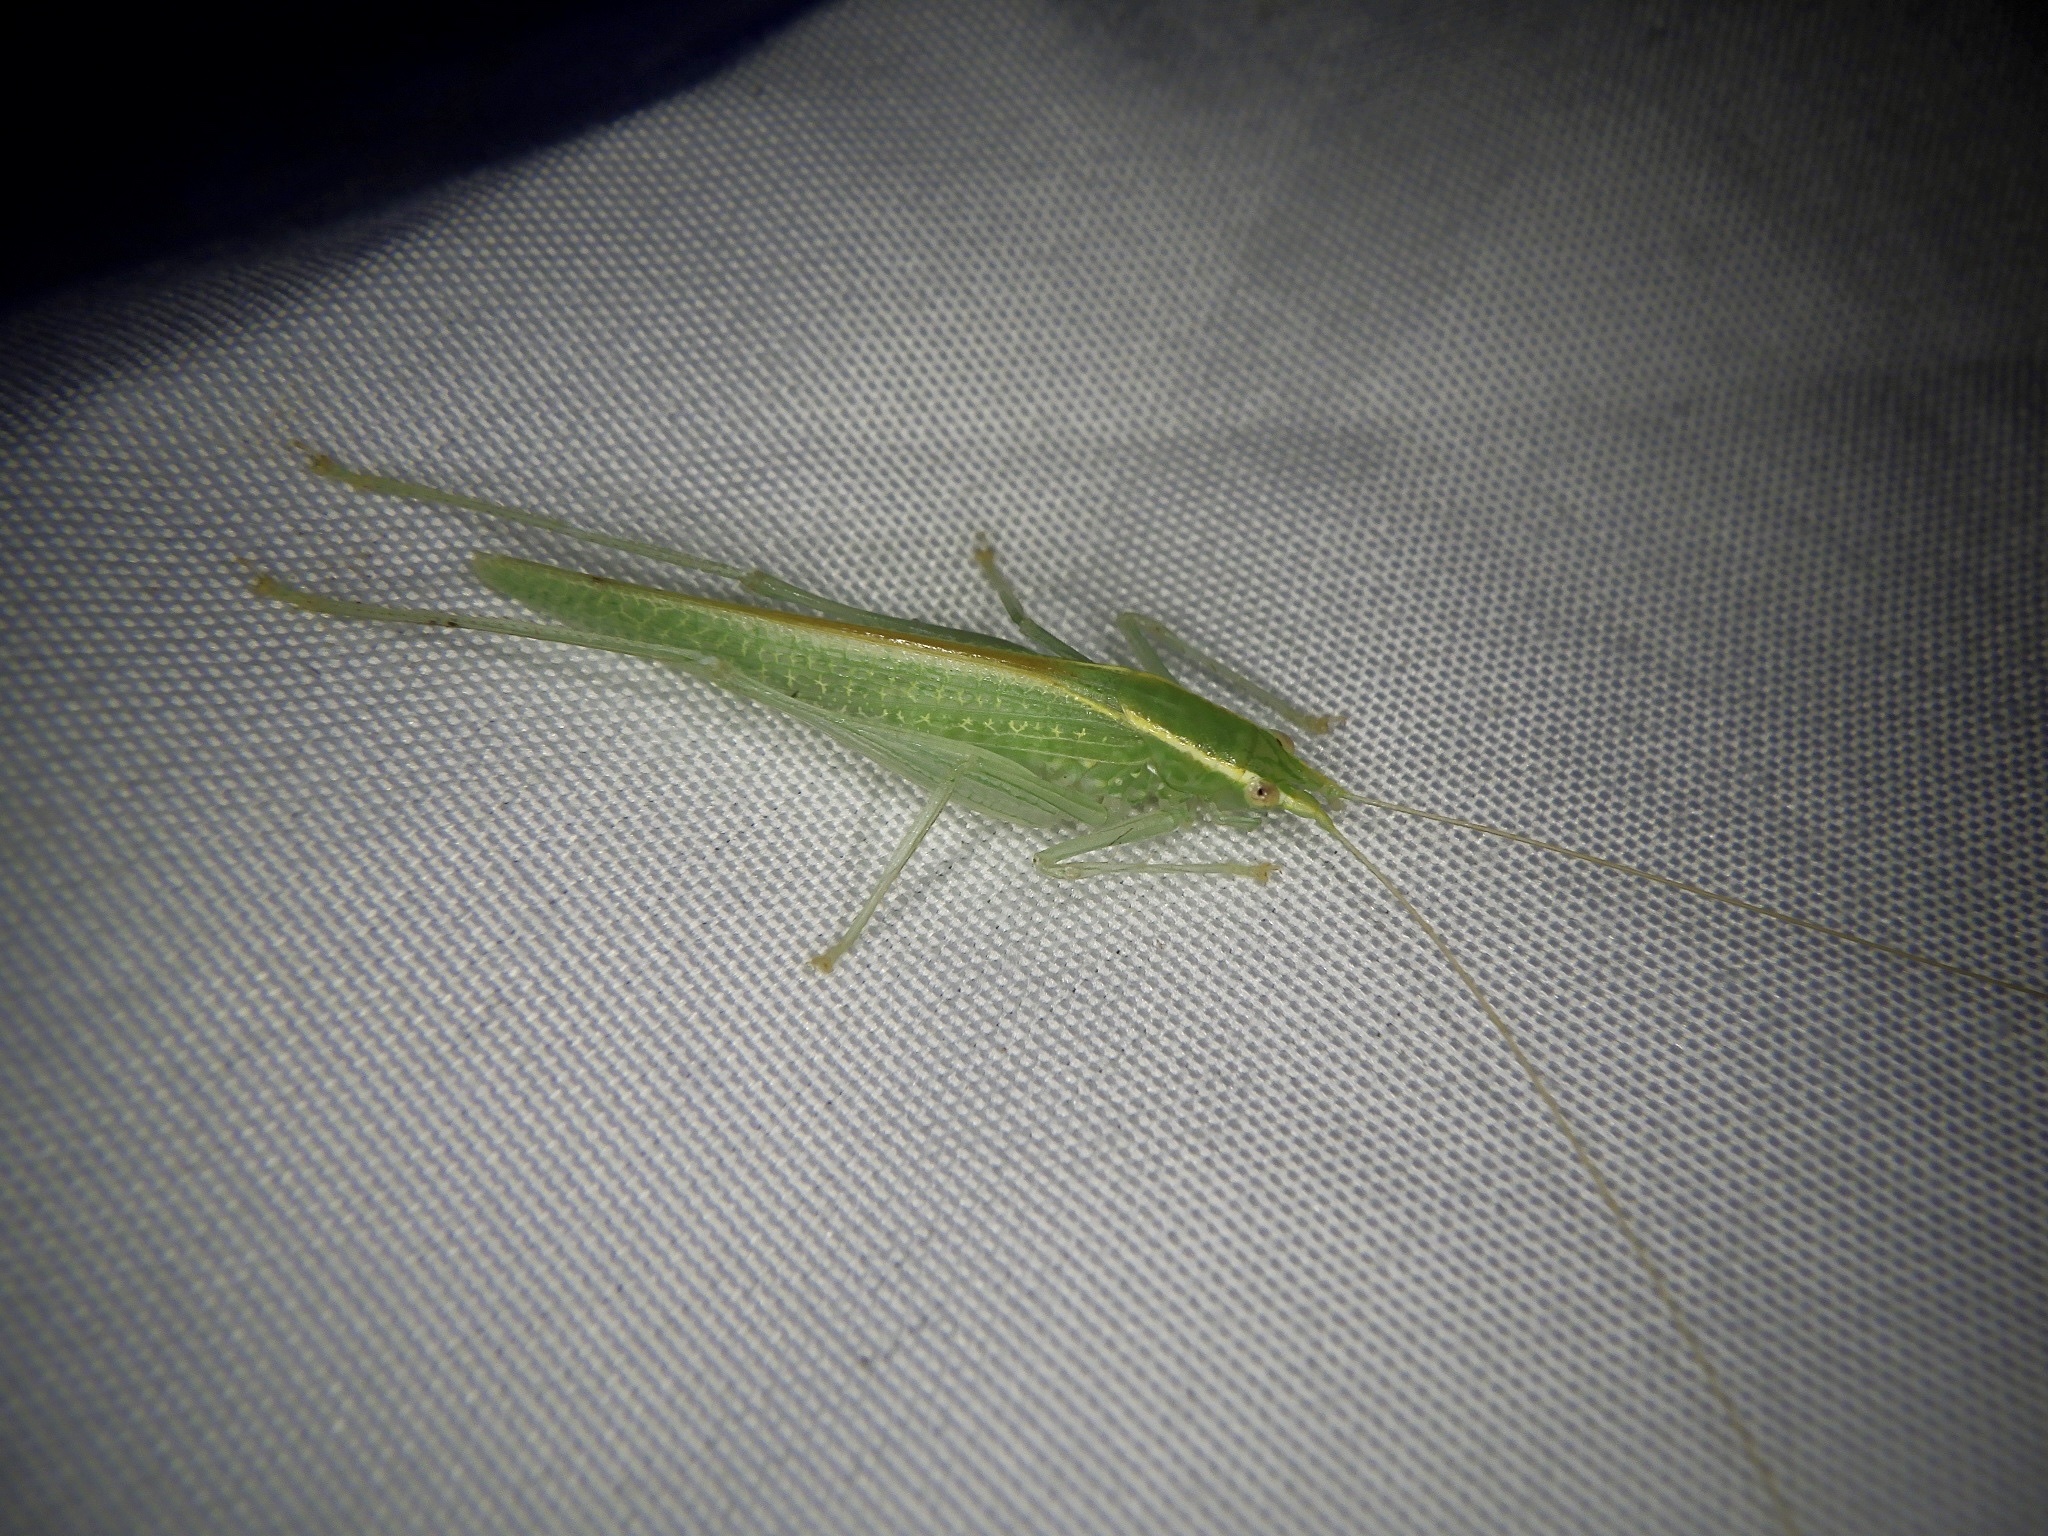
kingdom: Animalia
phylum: Arthropoda
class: Insecta
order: Orthoptera
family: Tettigoniidae
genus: Leptoteratura
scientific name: Leptoteratura albicorne
